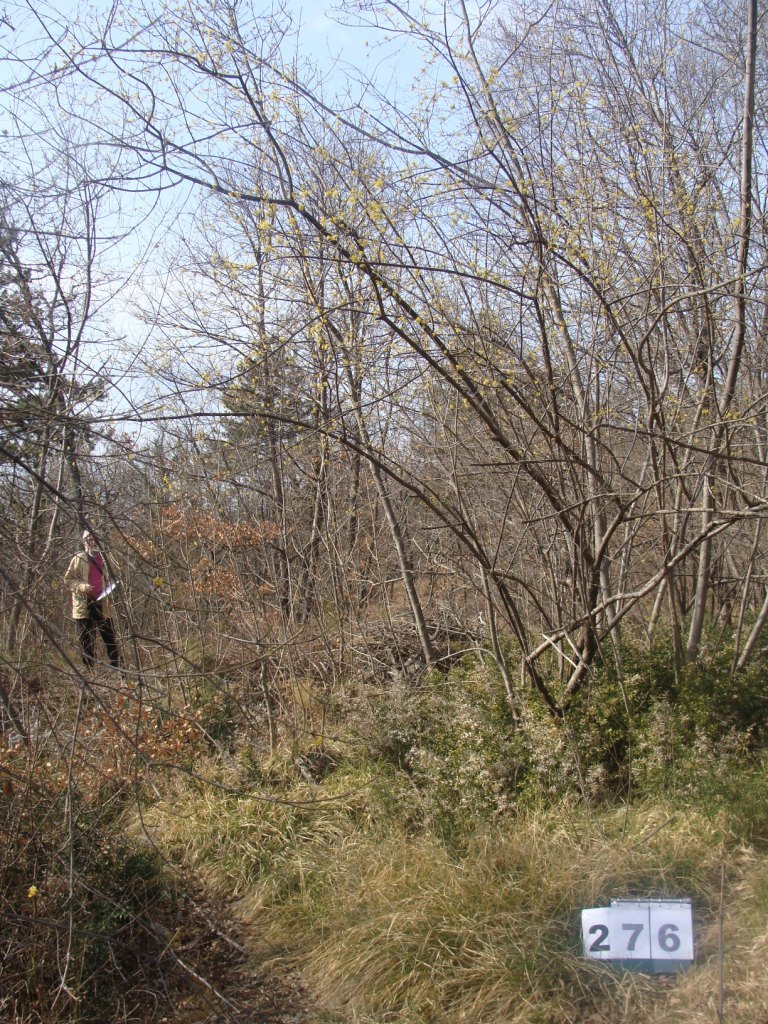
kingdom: Plantae
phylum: Tracheophyta
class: Magnoliopsida
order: Cornales
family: Cornaceae
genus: Cornus
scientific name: Cornus mas
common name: Cornelian-cherry
